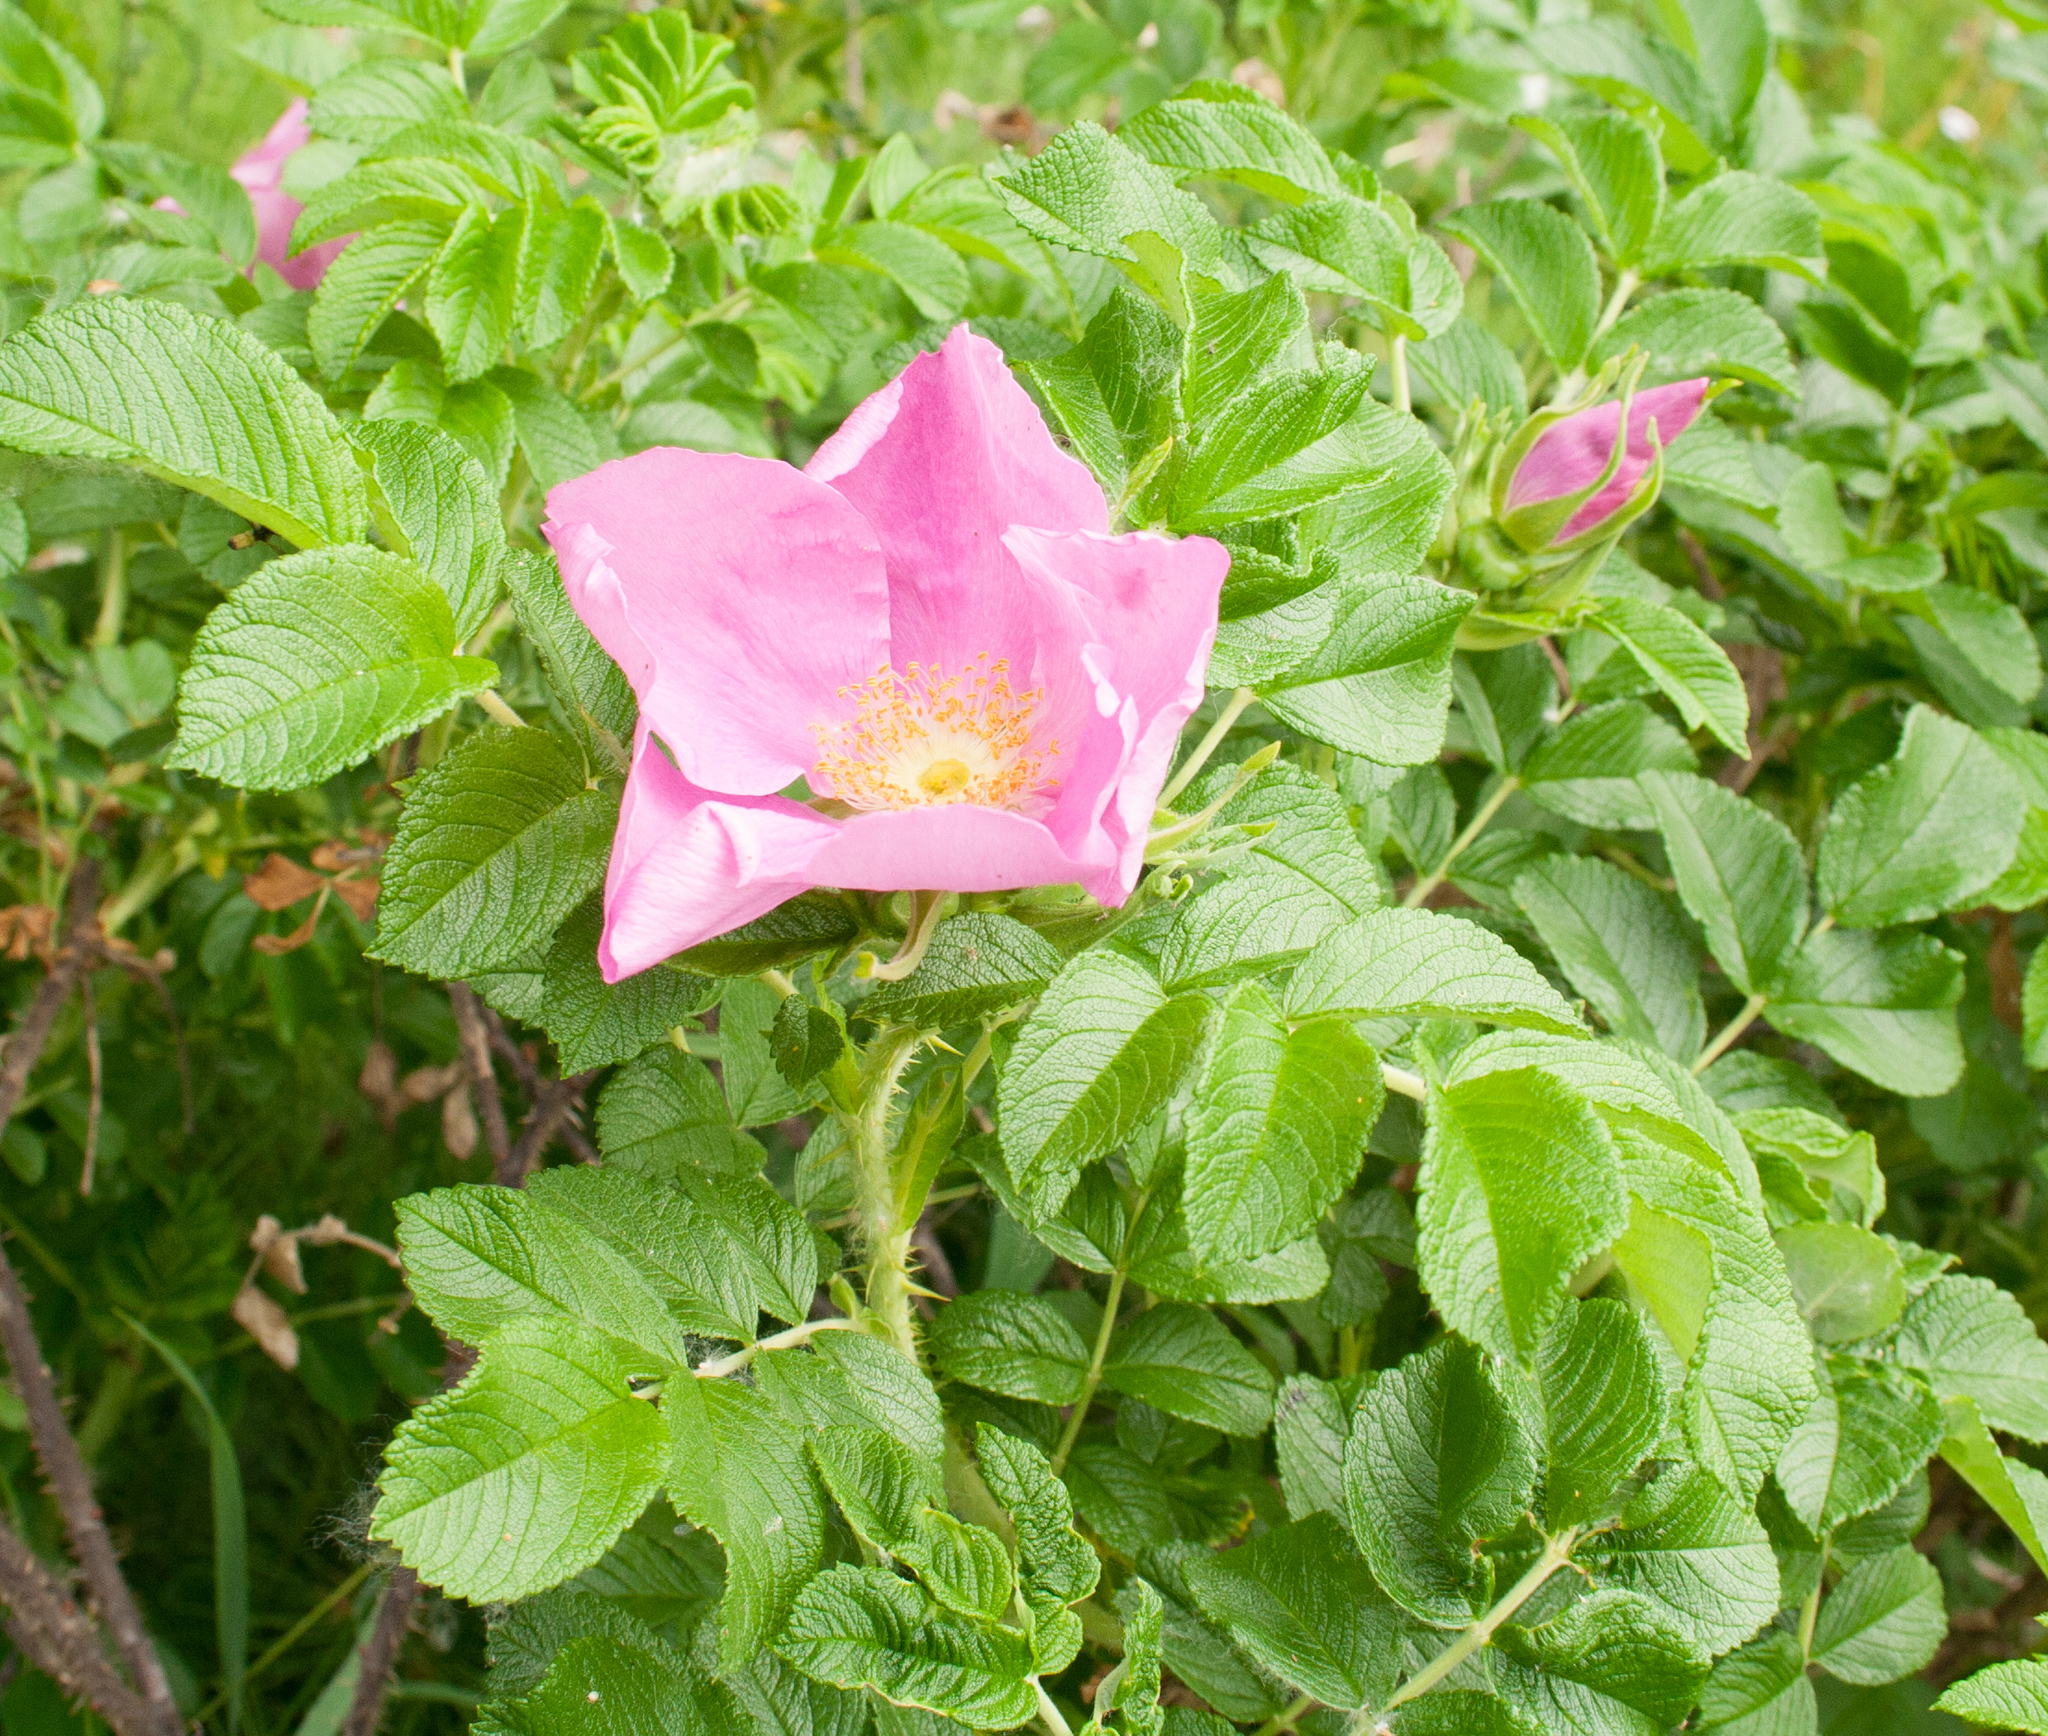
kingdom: Plantae
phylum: Tracheophyta
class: Magnoliopsida
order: Rosales
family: Rosaceae
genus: Rosa
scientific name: Rosa rugosa
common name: Japanese rose
